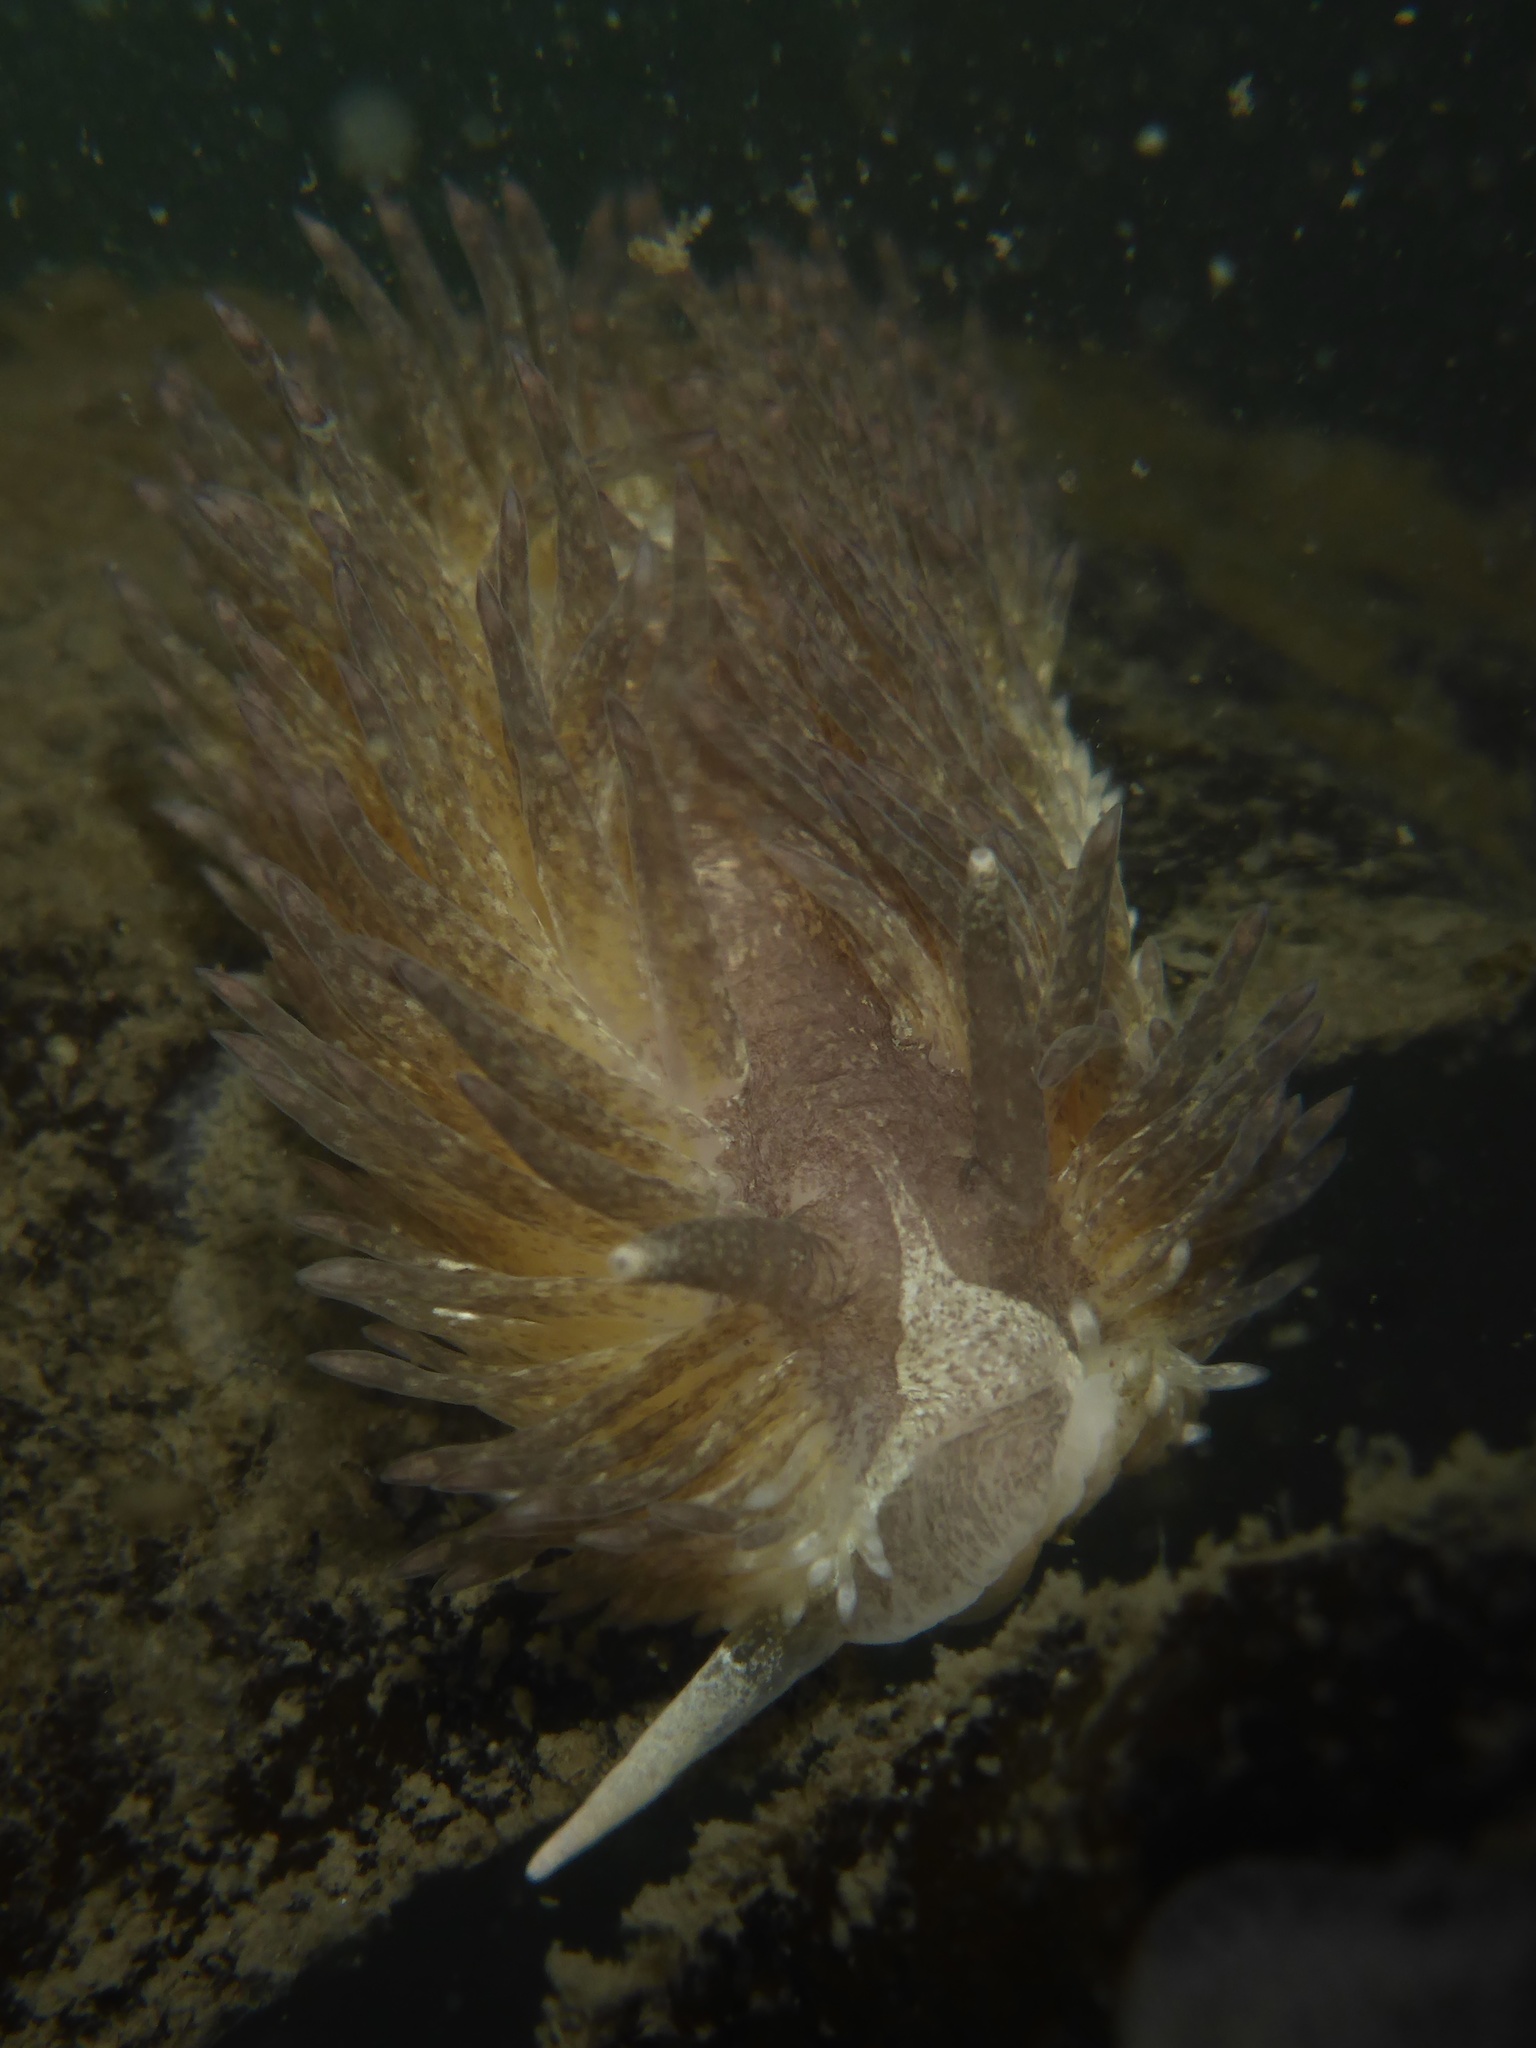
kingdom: Animalia
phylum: Mollusca
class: Gastropoda
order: Nudibranchia
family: Aeolidiidae
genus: Aeolidia
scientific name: Aeolidia papillosa
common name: Common grey sea slug
